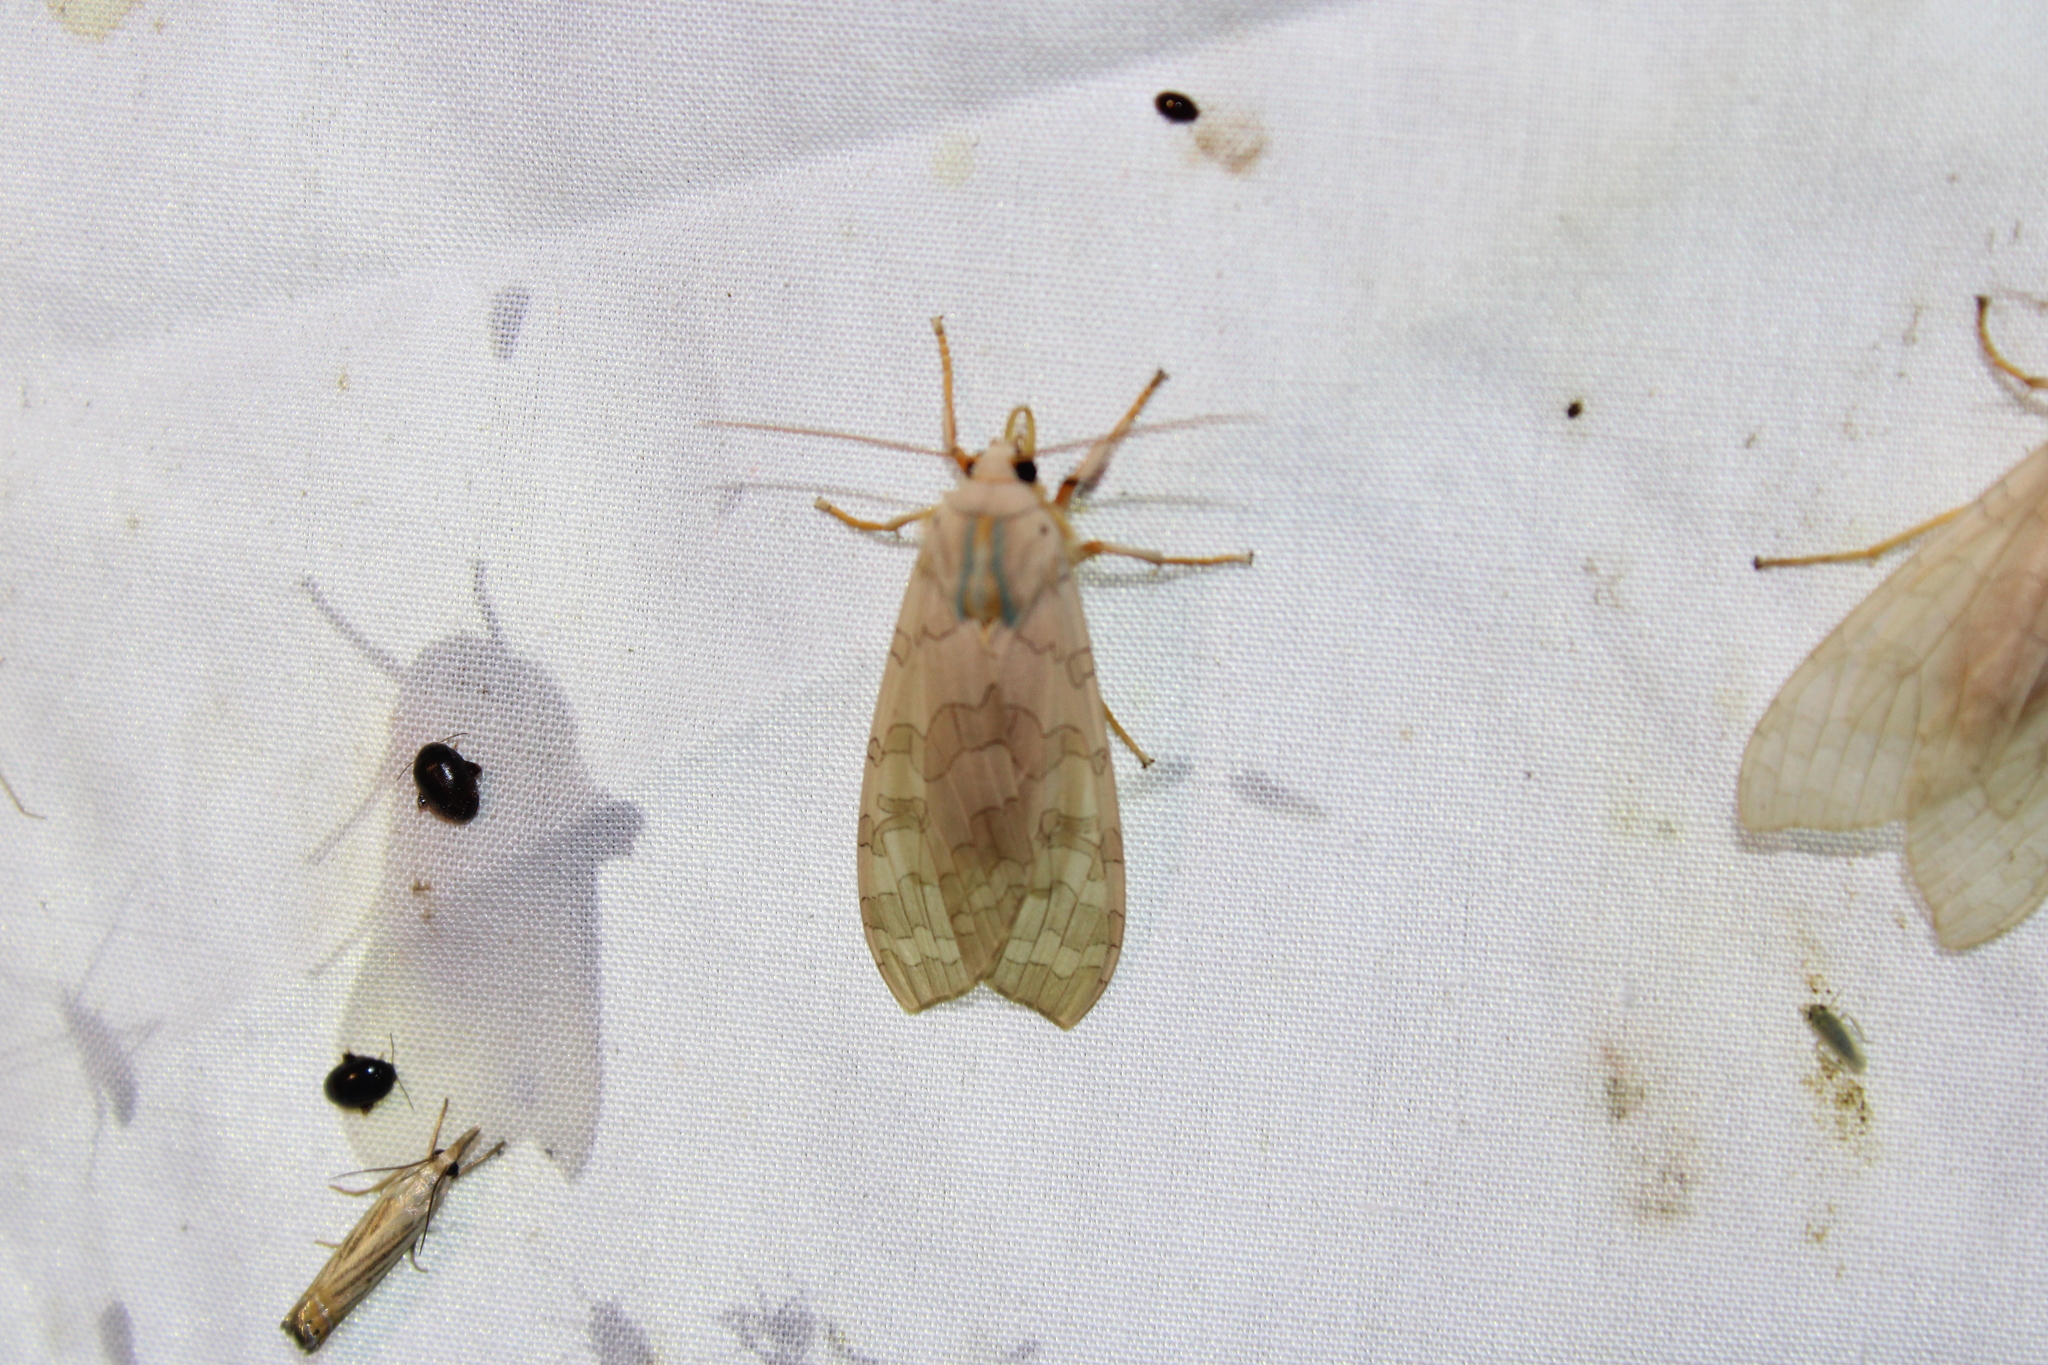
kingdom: Animalia
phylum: Arthropoda
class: Insecta
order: Lepidoptera
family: Erebidae
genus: Halysidota
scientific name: Halysidota
